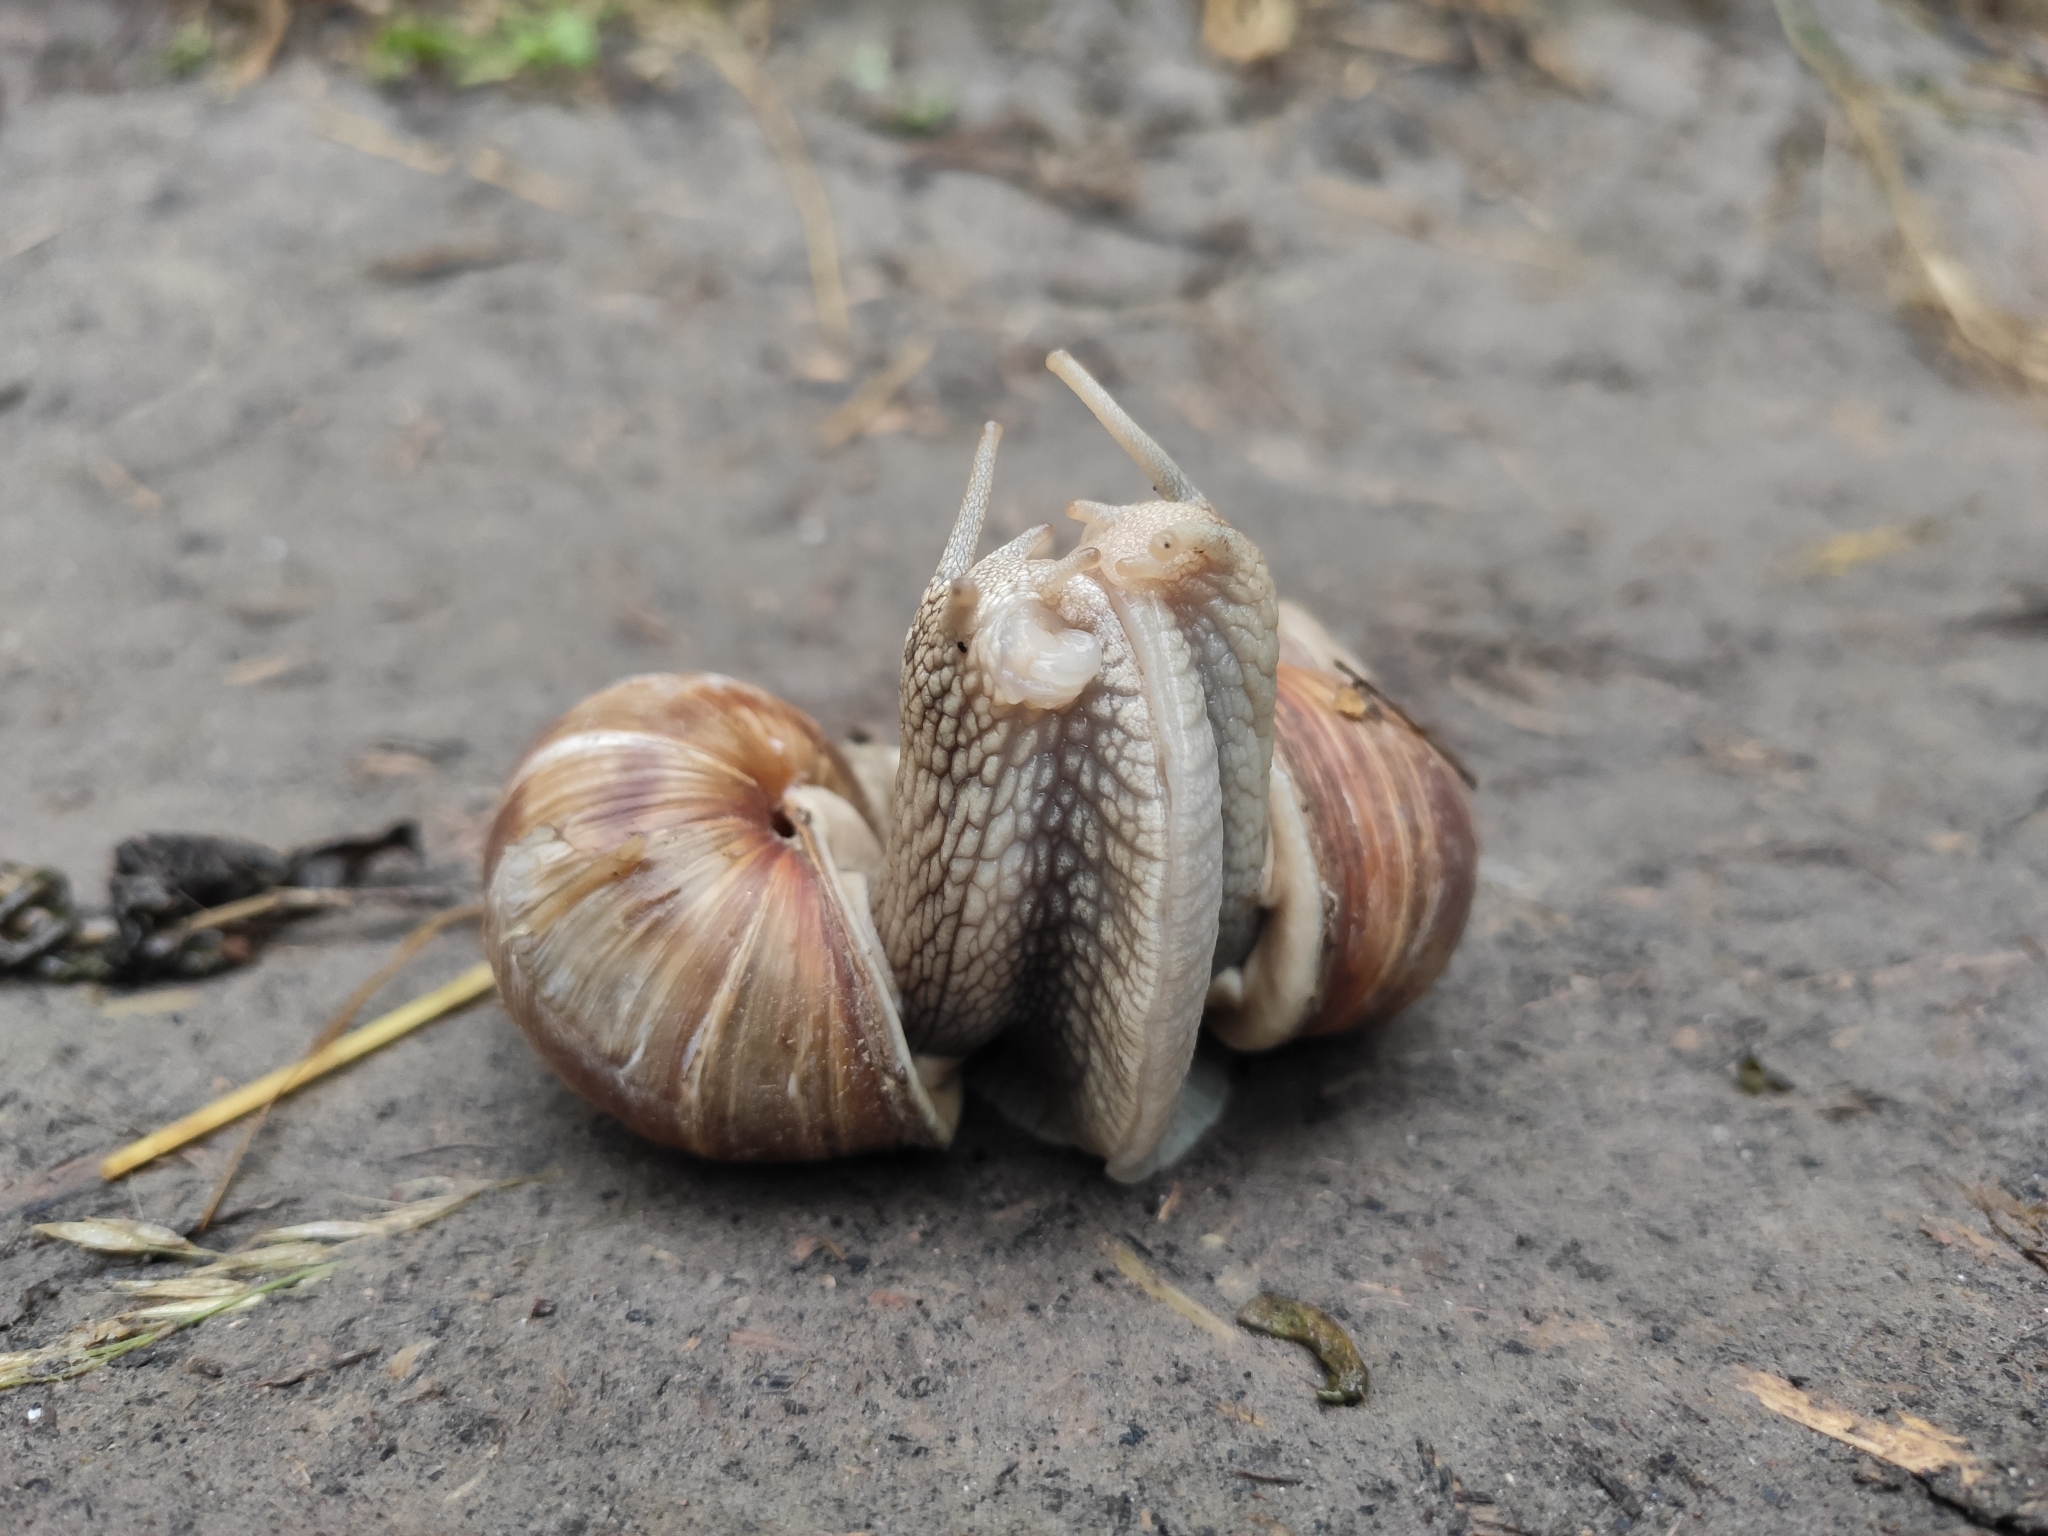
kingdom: Animalia
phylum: Mollusca
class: Gastropoda
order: Stylommatophora
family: Helicidae
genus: Helix
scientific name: Helix pomatia
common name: Roman snail
